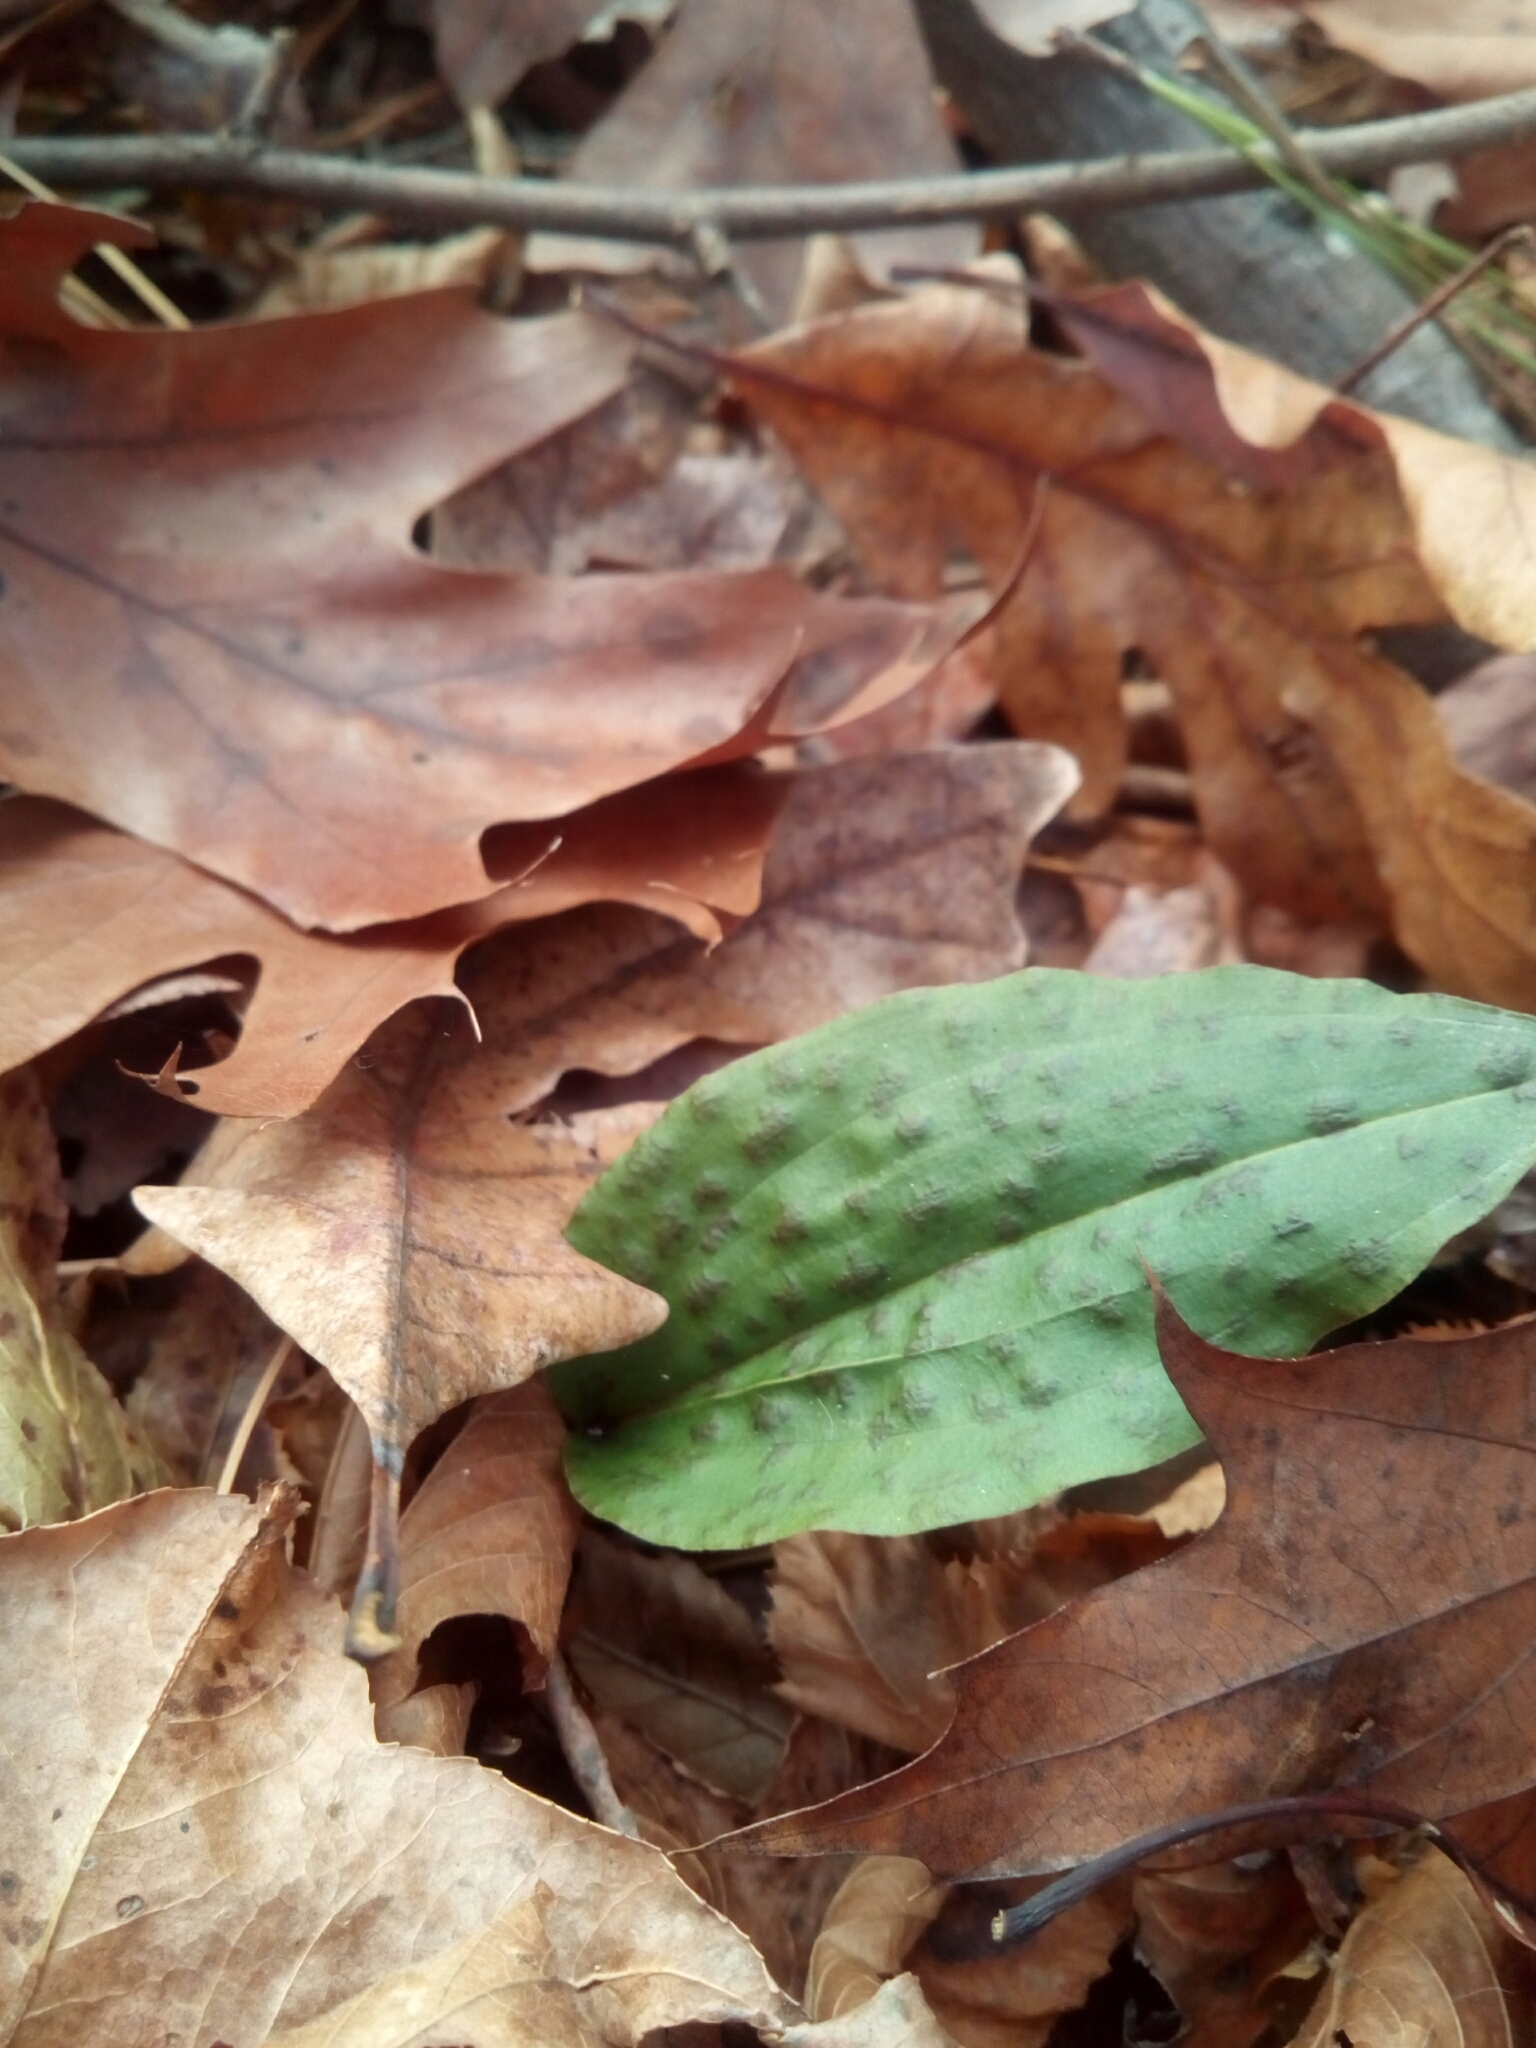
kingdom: Plantae
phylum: Tracheophyta
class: Liliopsida
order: Asparagales
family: Orchidaceae
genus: Tipularia
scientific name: Tipularia discolor
